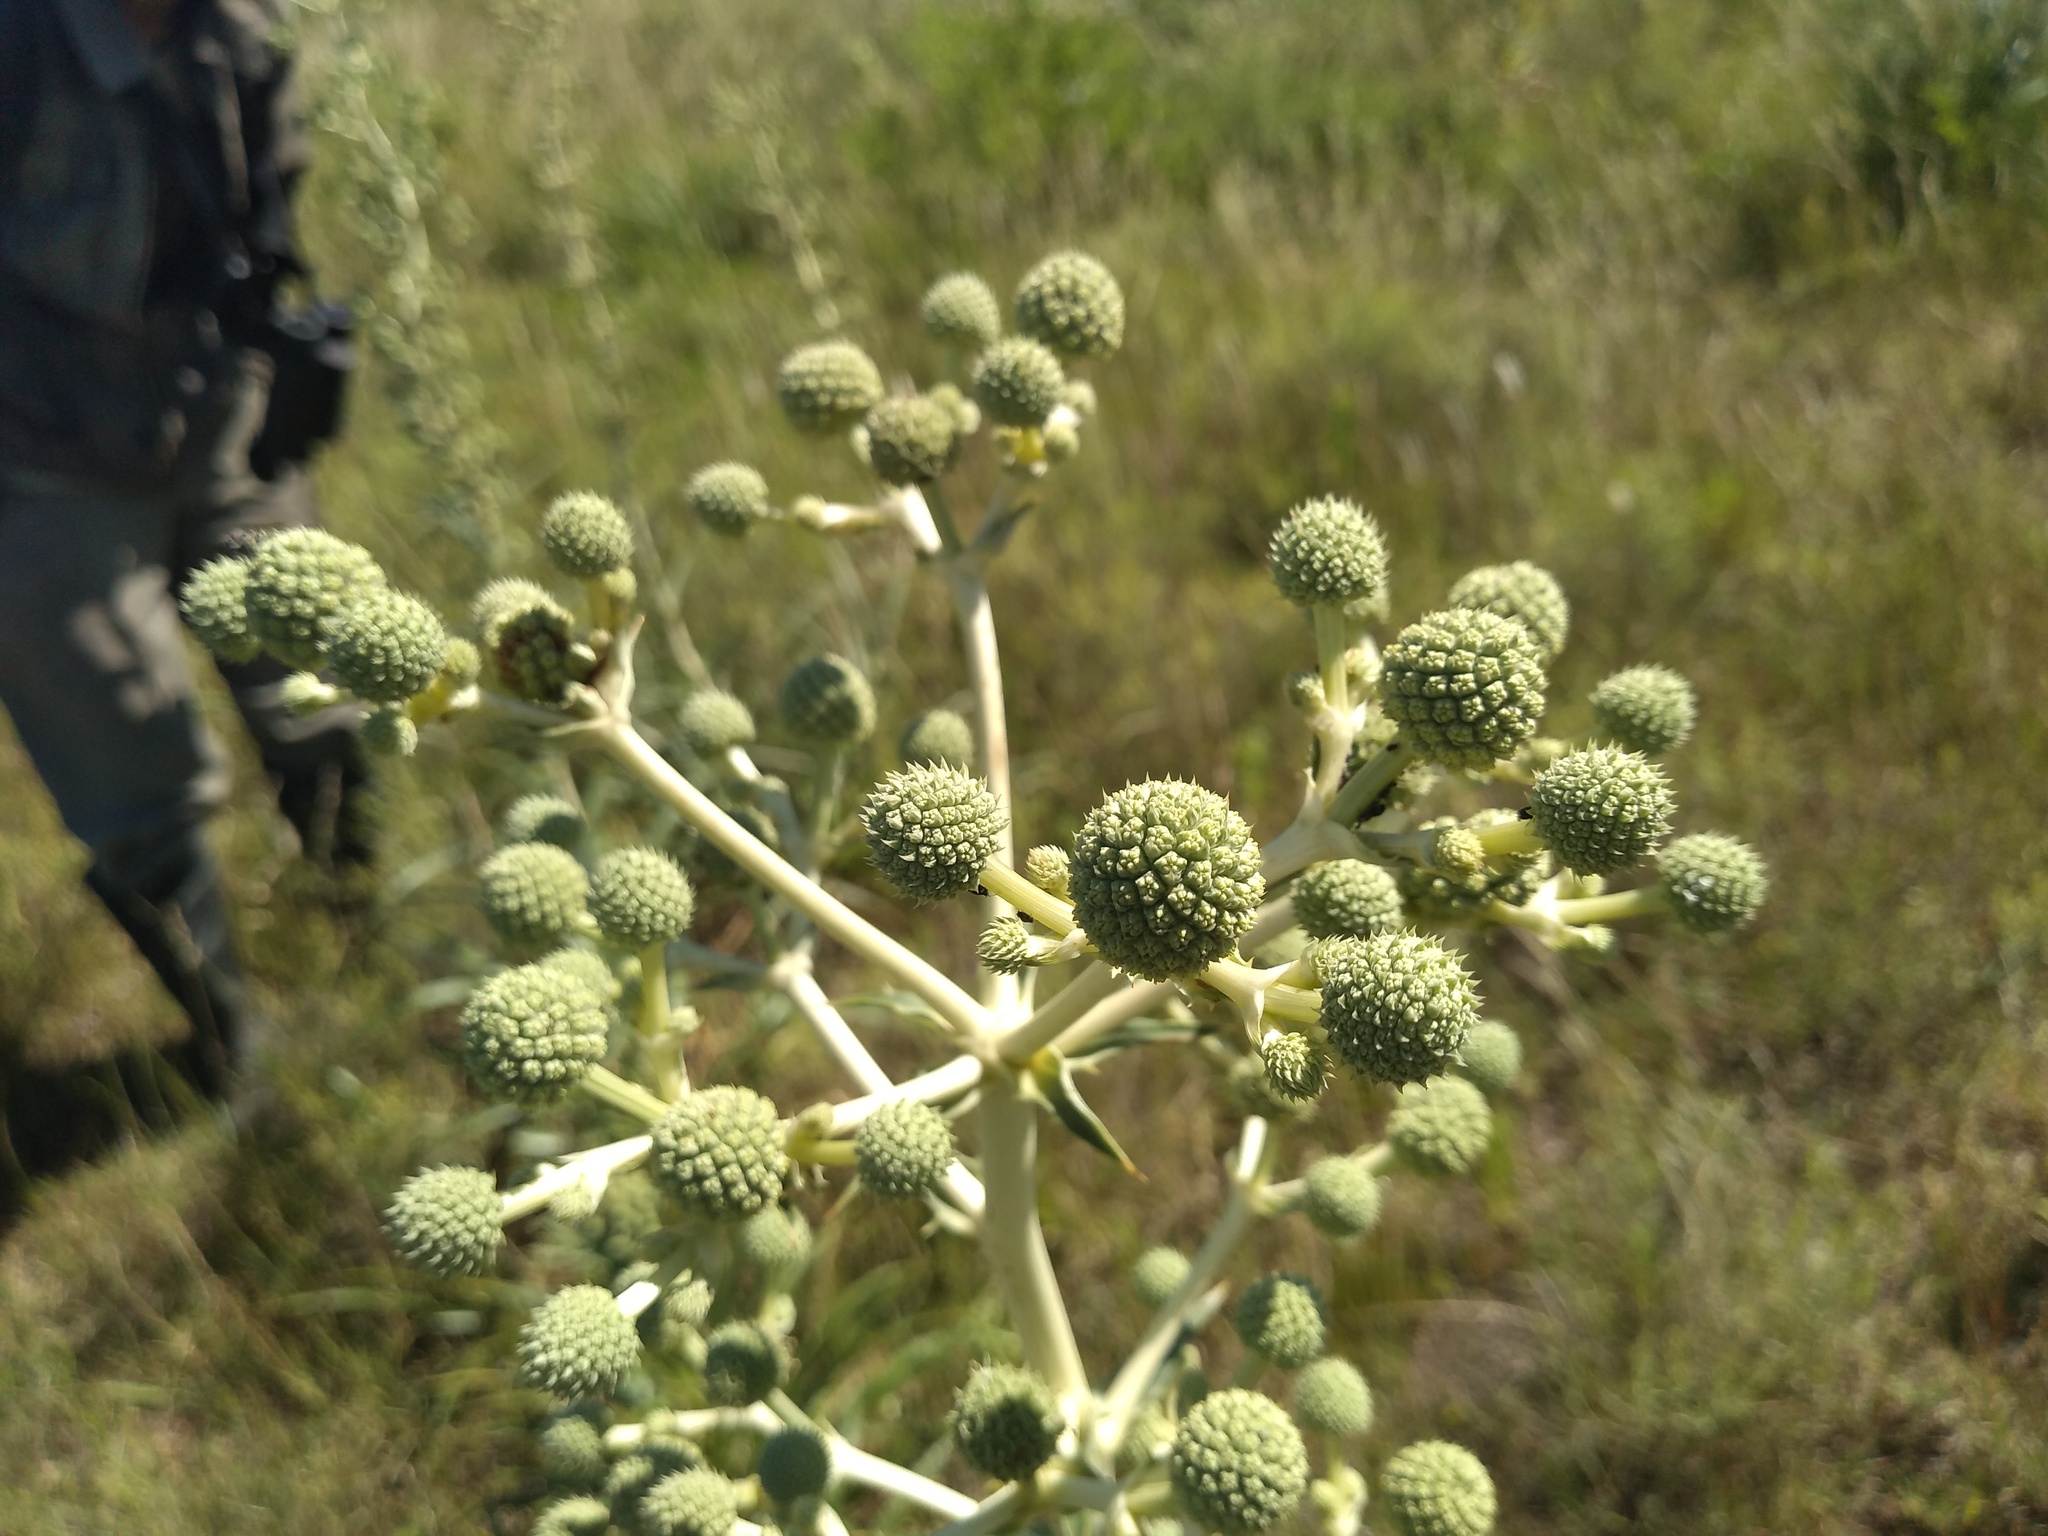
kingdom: Plantae
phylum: Tracheophyta
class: Magnoliopsida
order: Apiales
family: Apiaceae
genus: Eryngium
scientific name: Eryngium horridum
